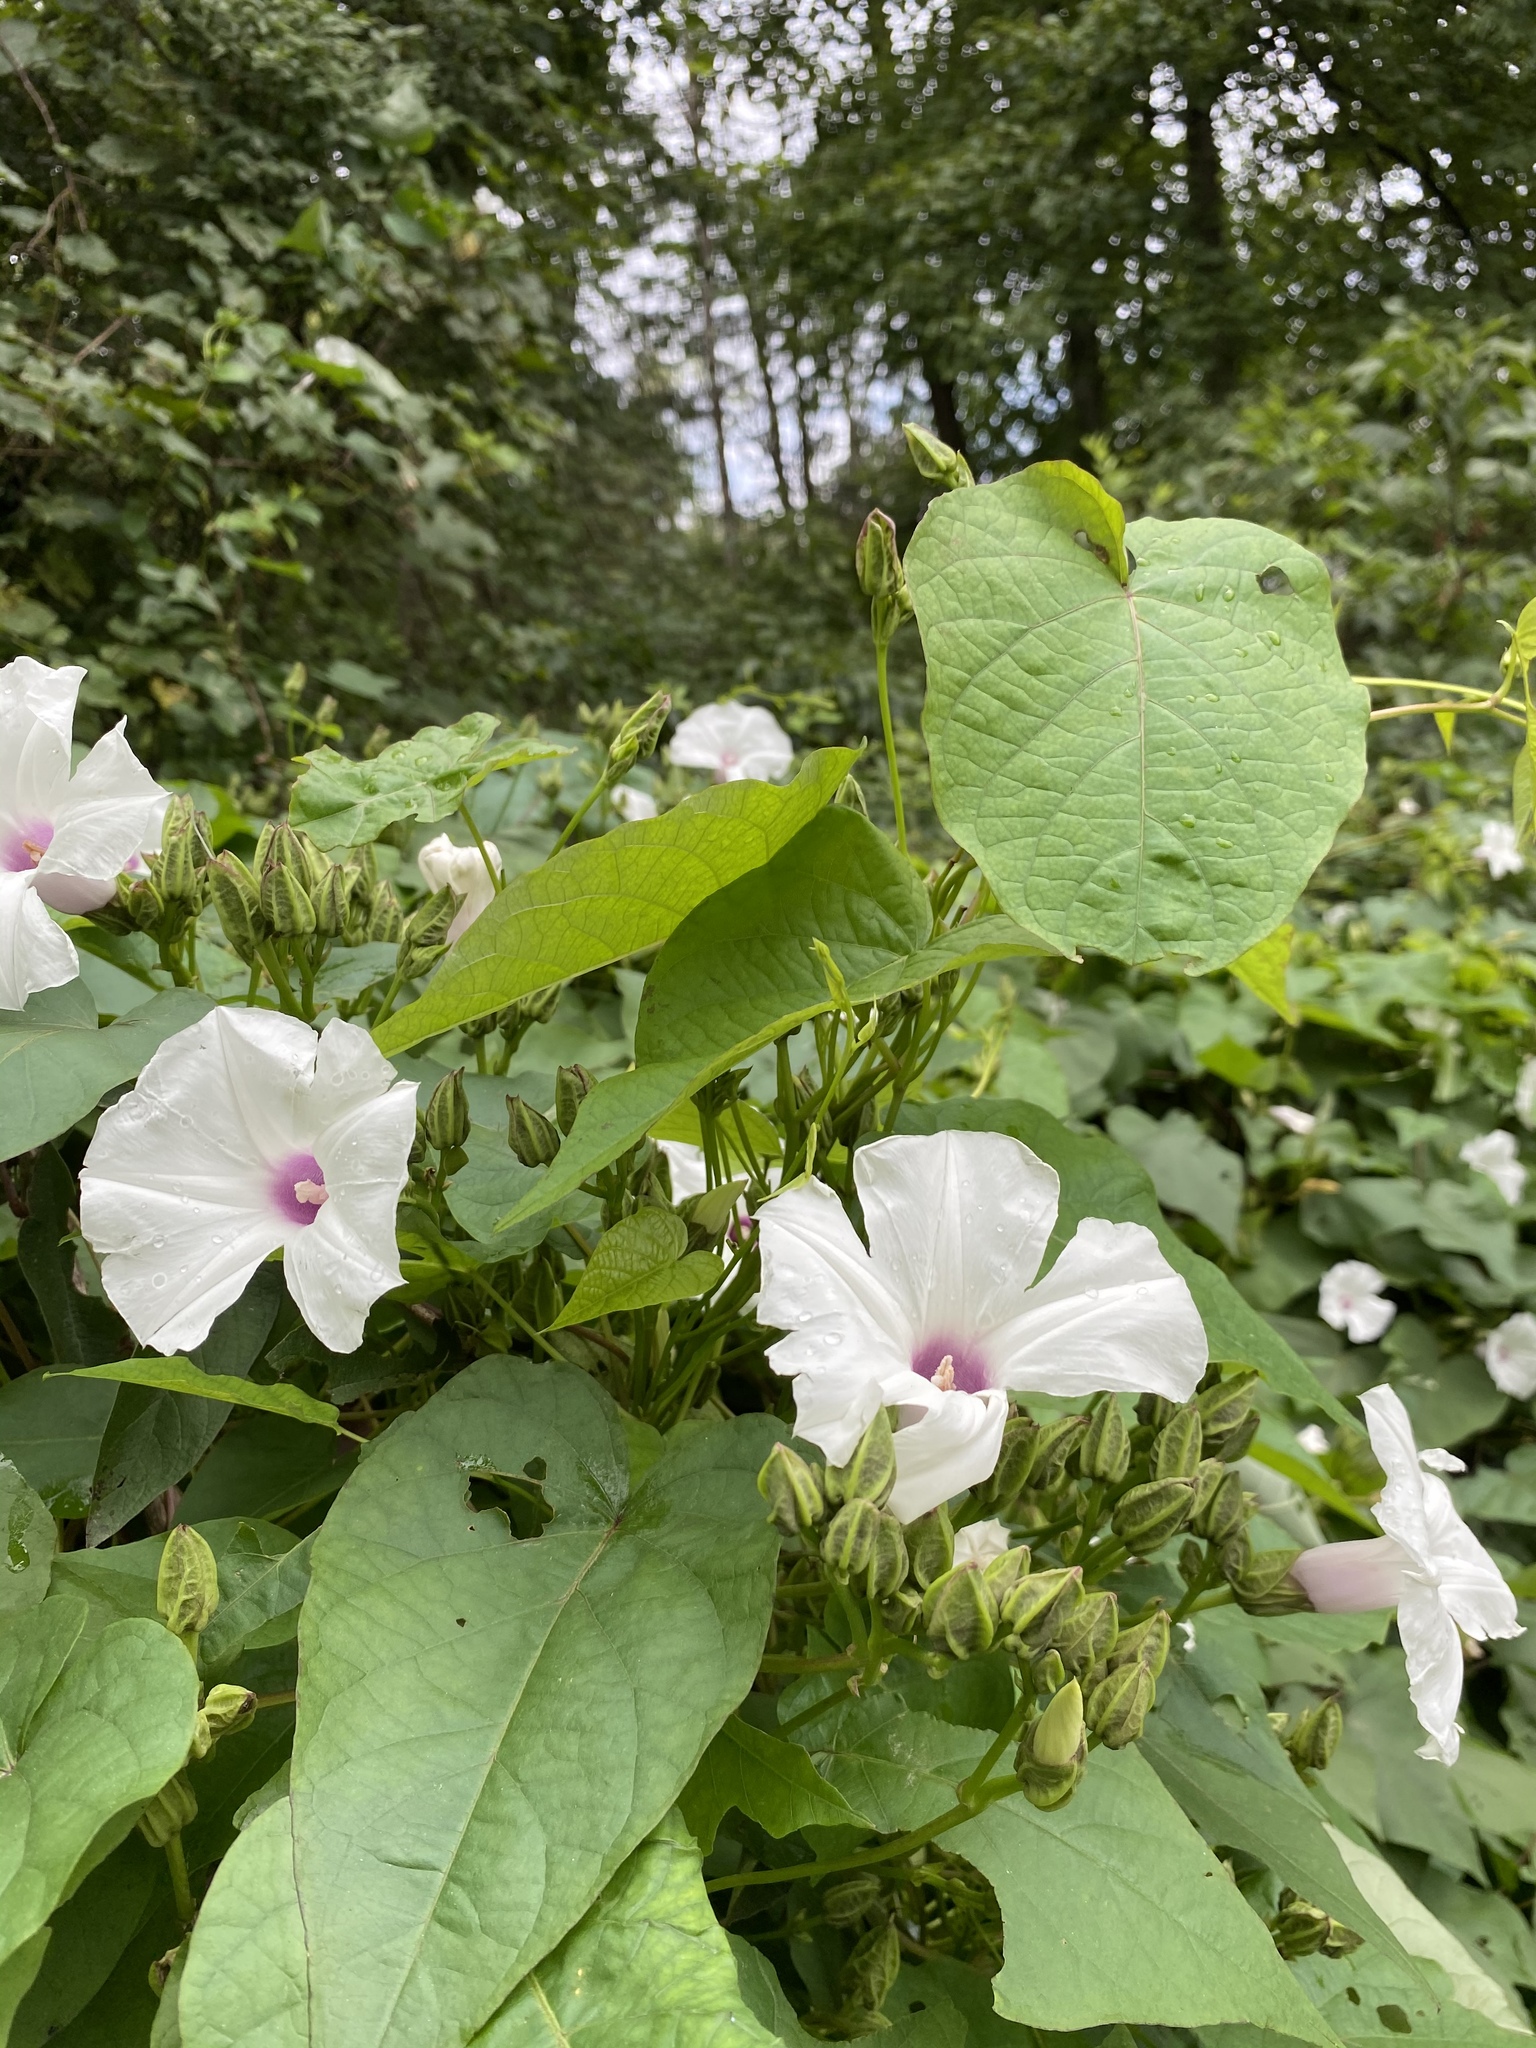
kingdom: Plantae
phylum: Tracheophyta
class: Magnoliopsida
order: Solanales
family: Convolvulaceae
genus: Ipomoea
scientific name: Ipomoea pandurata
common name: Man-of-the-earth
